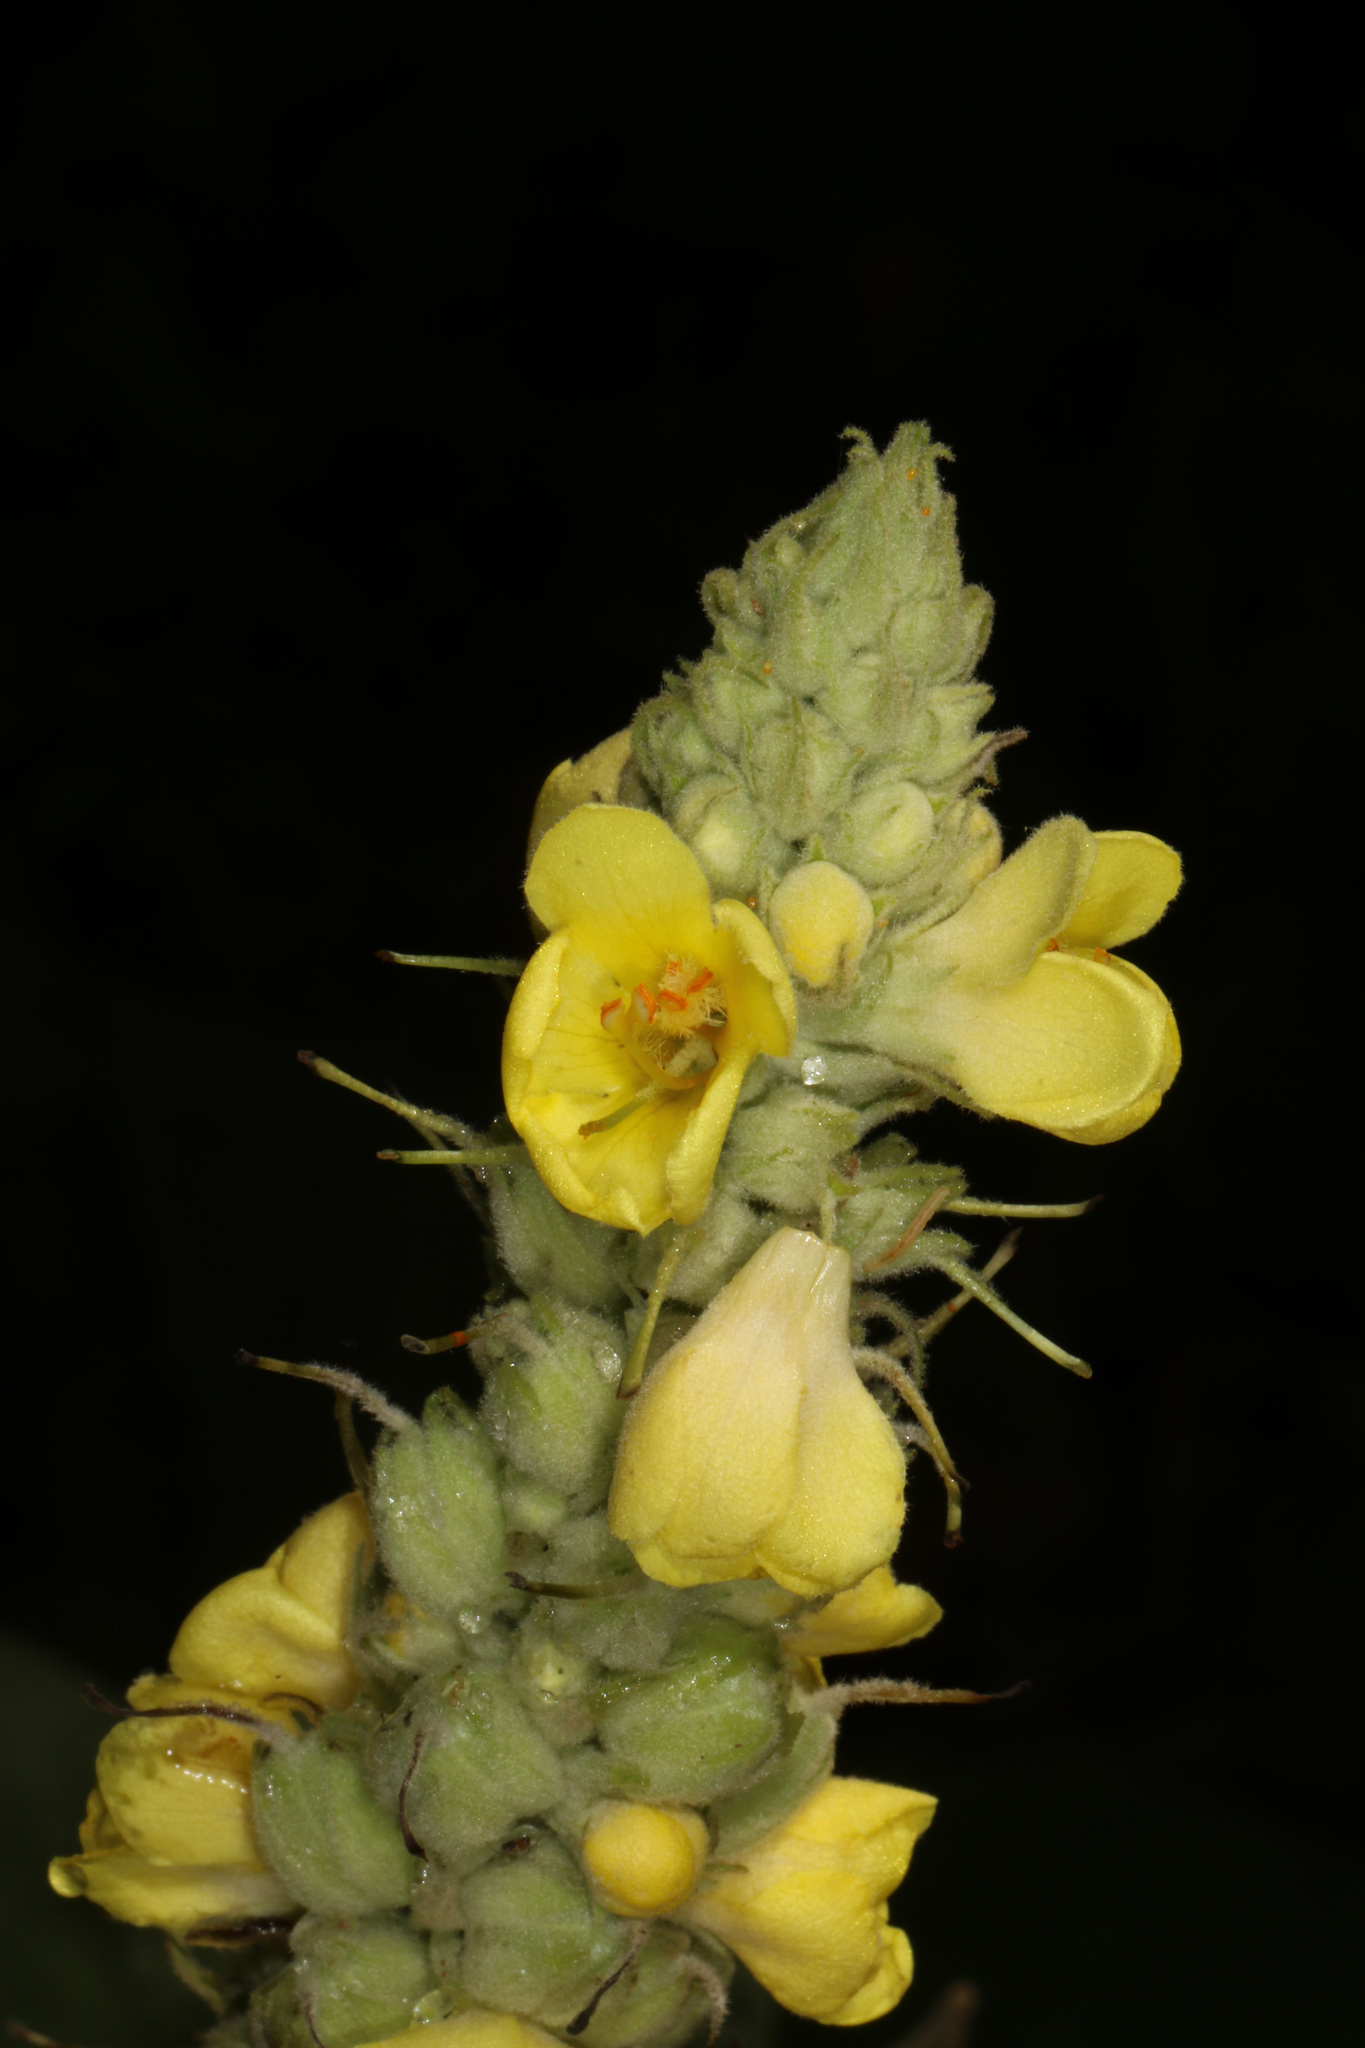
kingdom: Plantae
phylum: Tracheophyta
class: Magnoliopsida
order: Lamiales
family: Scrophulariaceae
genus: Verbascum
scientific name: Verbascum thapsus
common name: Common mullein
